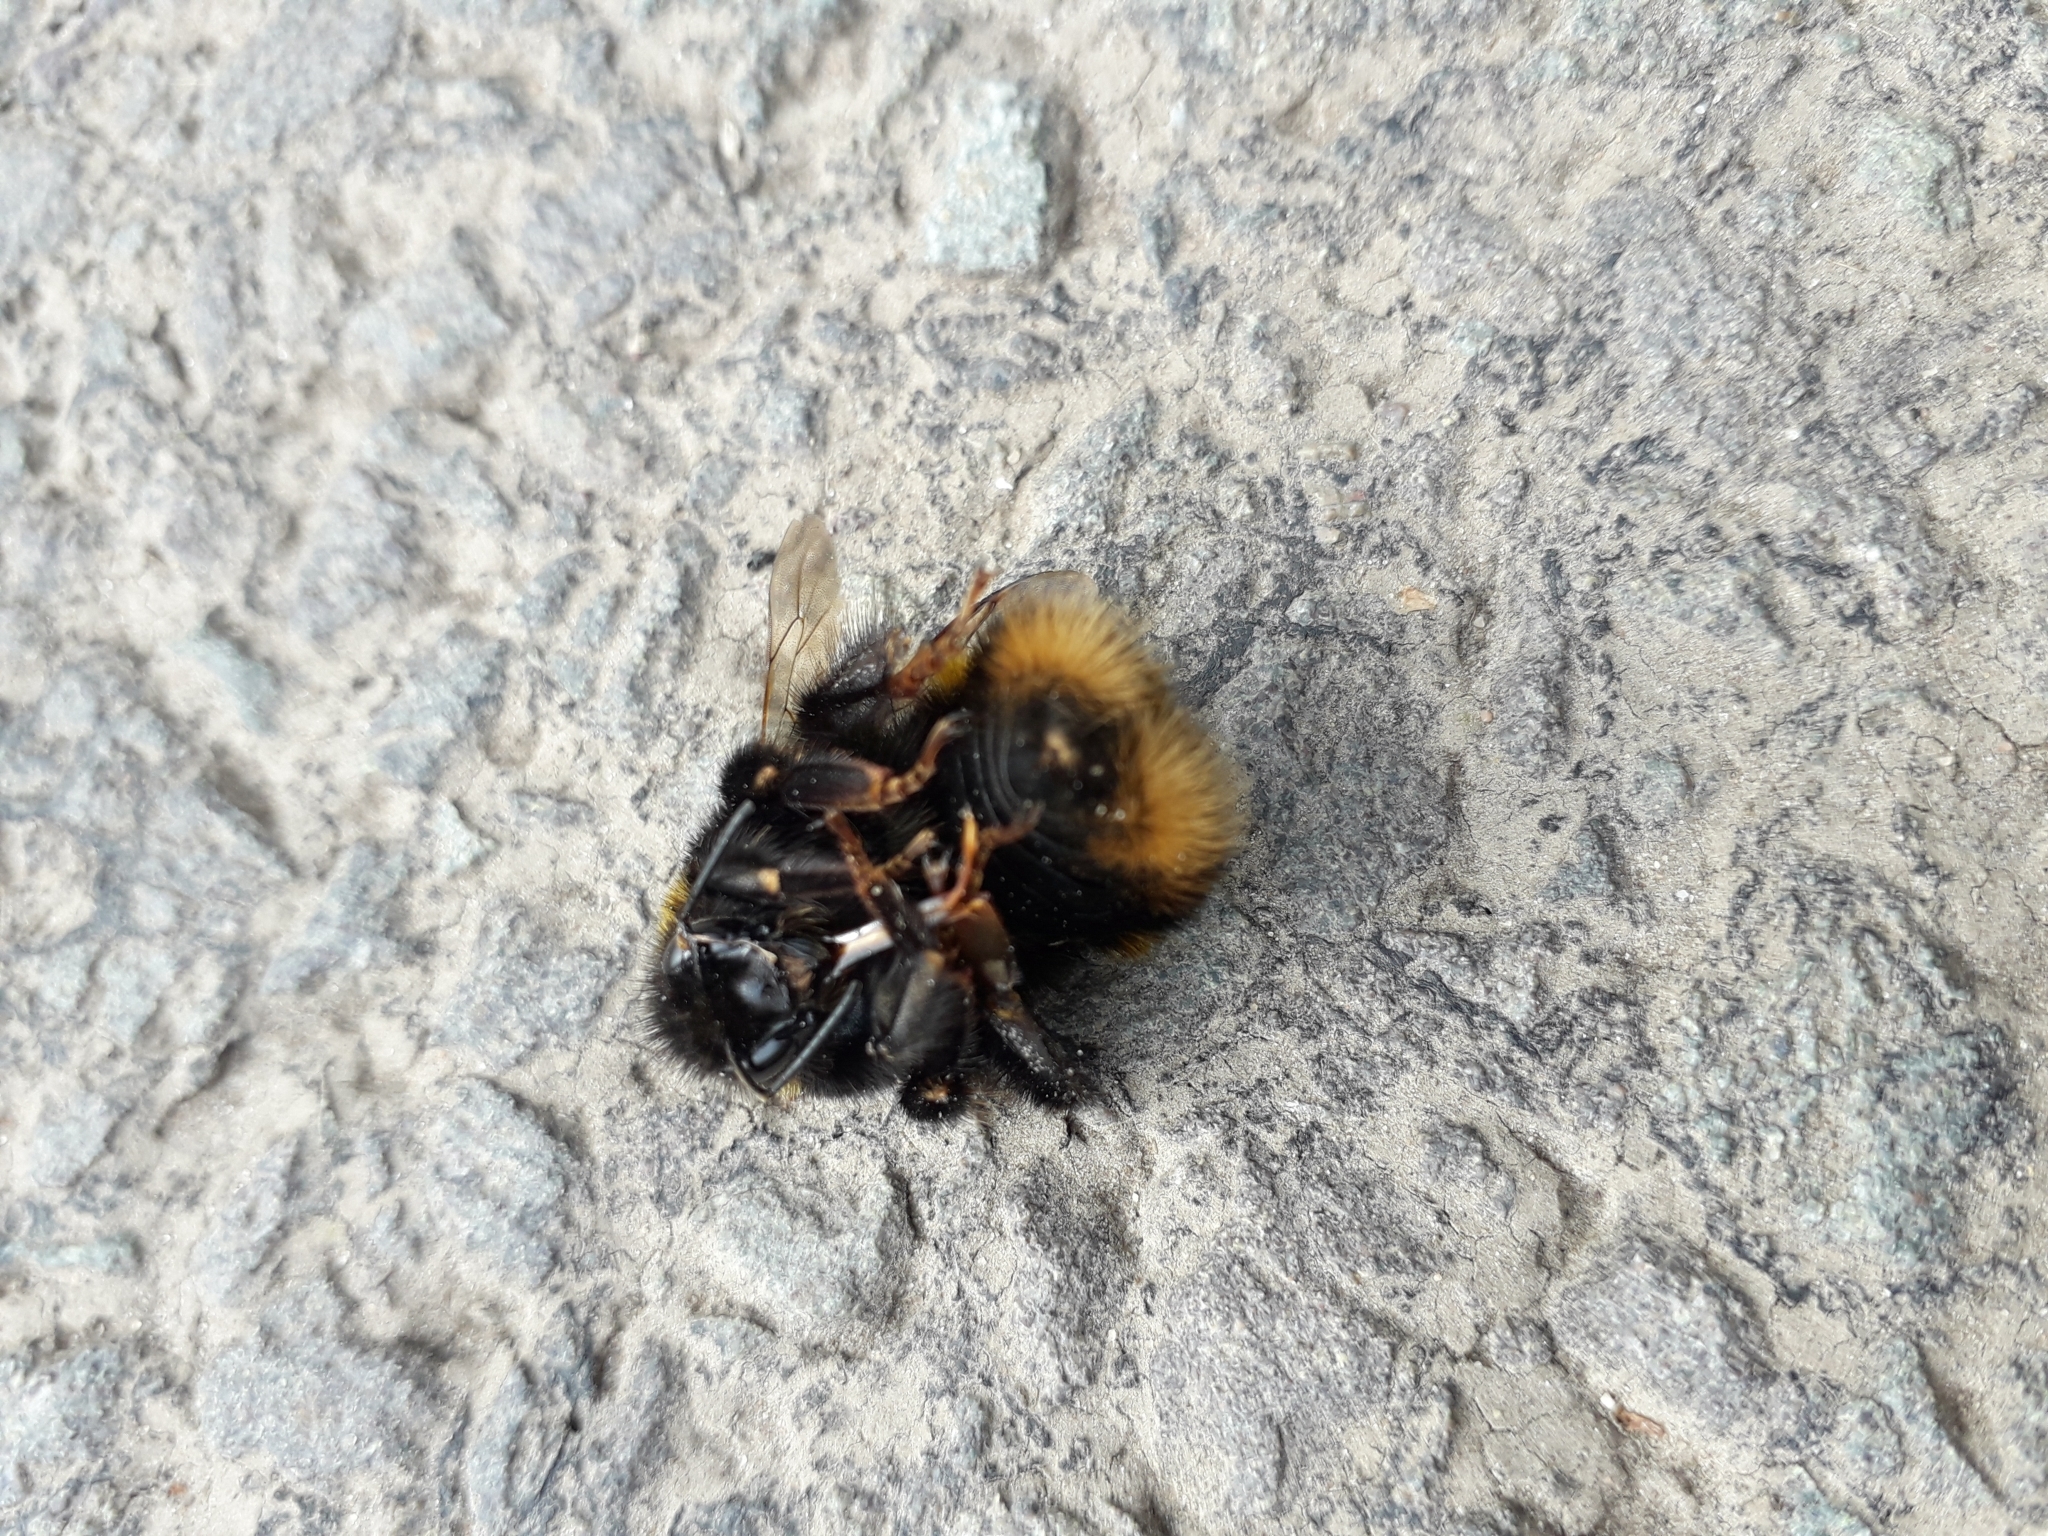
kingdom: Animalia
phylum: Arthropoda
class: Insecta
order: Hymenoptera
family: Apidae
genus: Bombus
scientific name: Bombus terrestris
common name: Buff-tailed bumblebee
